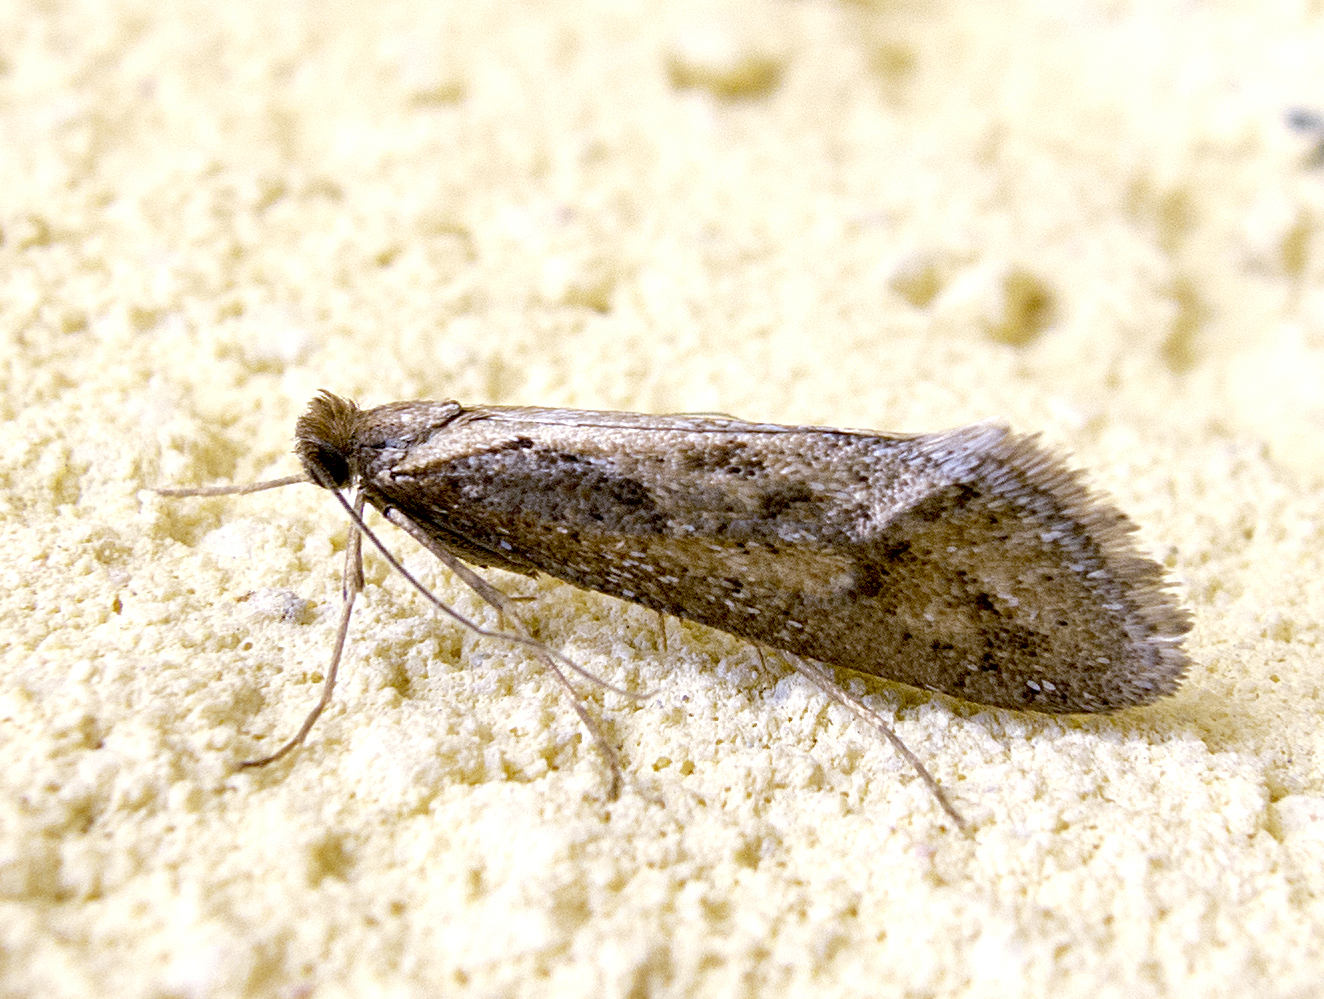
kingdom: Animalia
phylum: Arthropoda
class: Insecta
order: Lepidoptera
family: Eriocottidae
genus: Deuterotinea
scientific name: Deuterotinea balcanica
